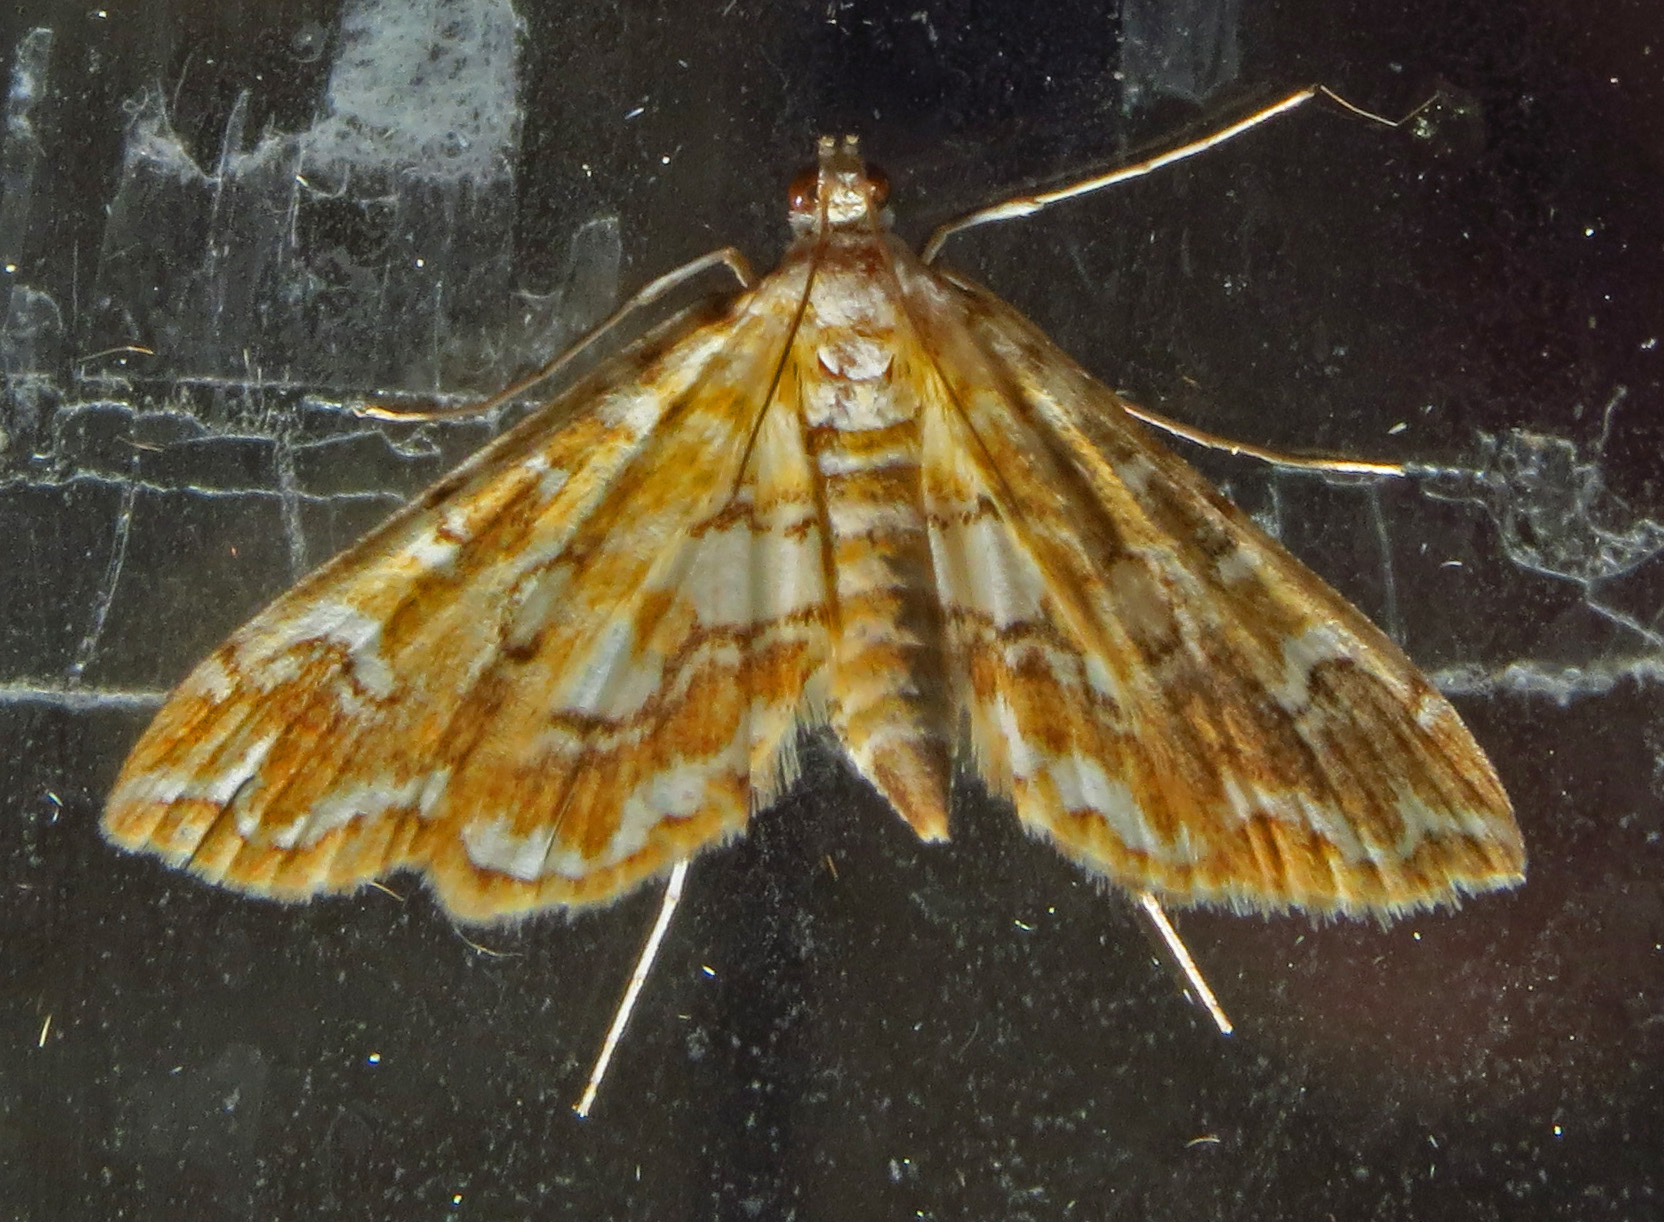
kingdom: Animalia
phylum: Arthropoda
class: Insecta
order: Lepidoptera
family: Crambidae
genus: Elophila
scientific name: Elophila icciusalis
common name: Pondside pyralid moth
